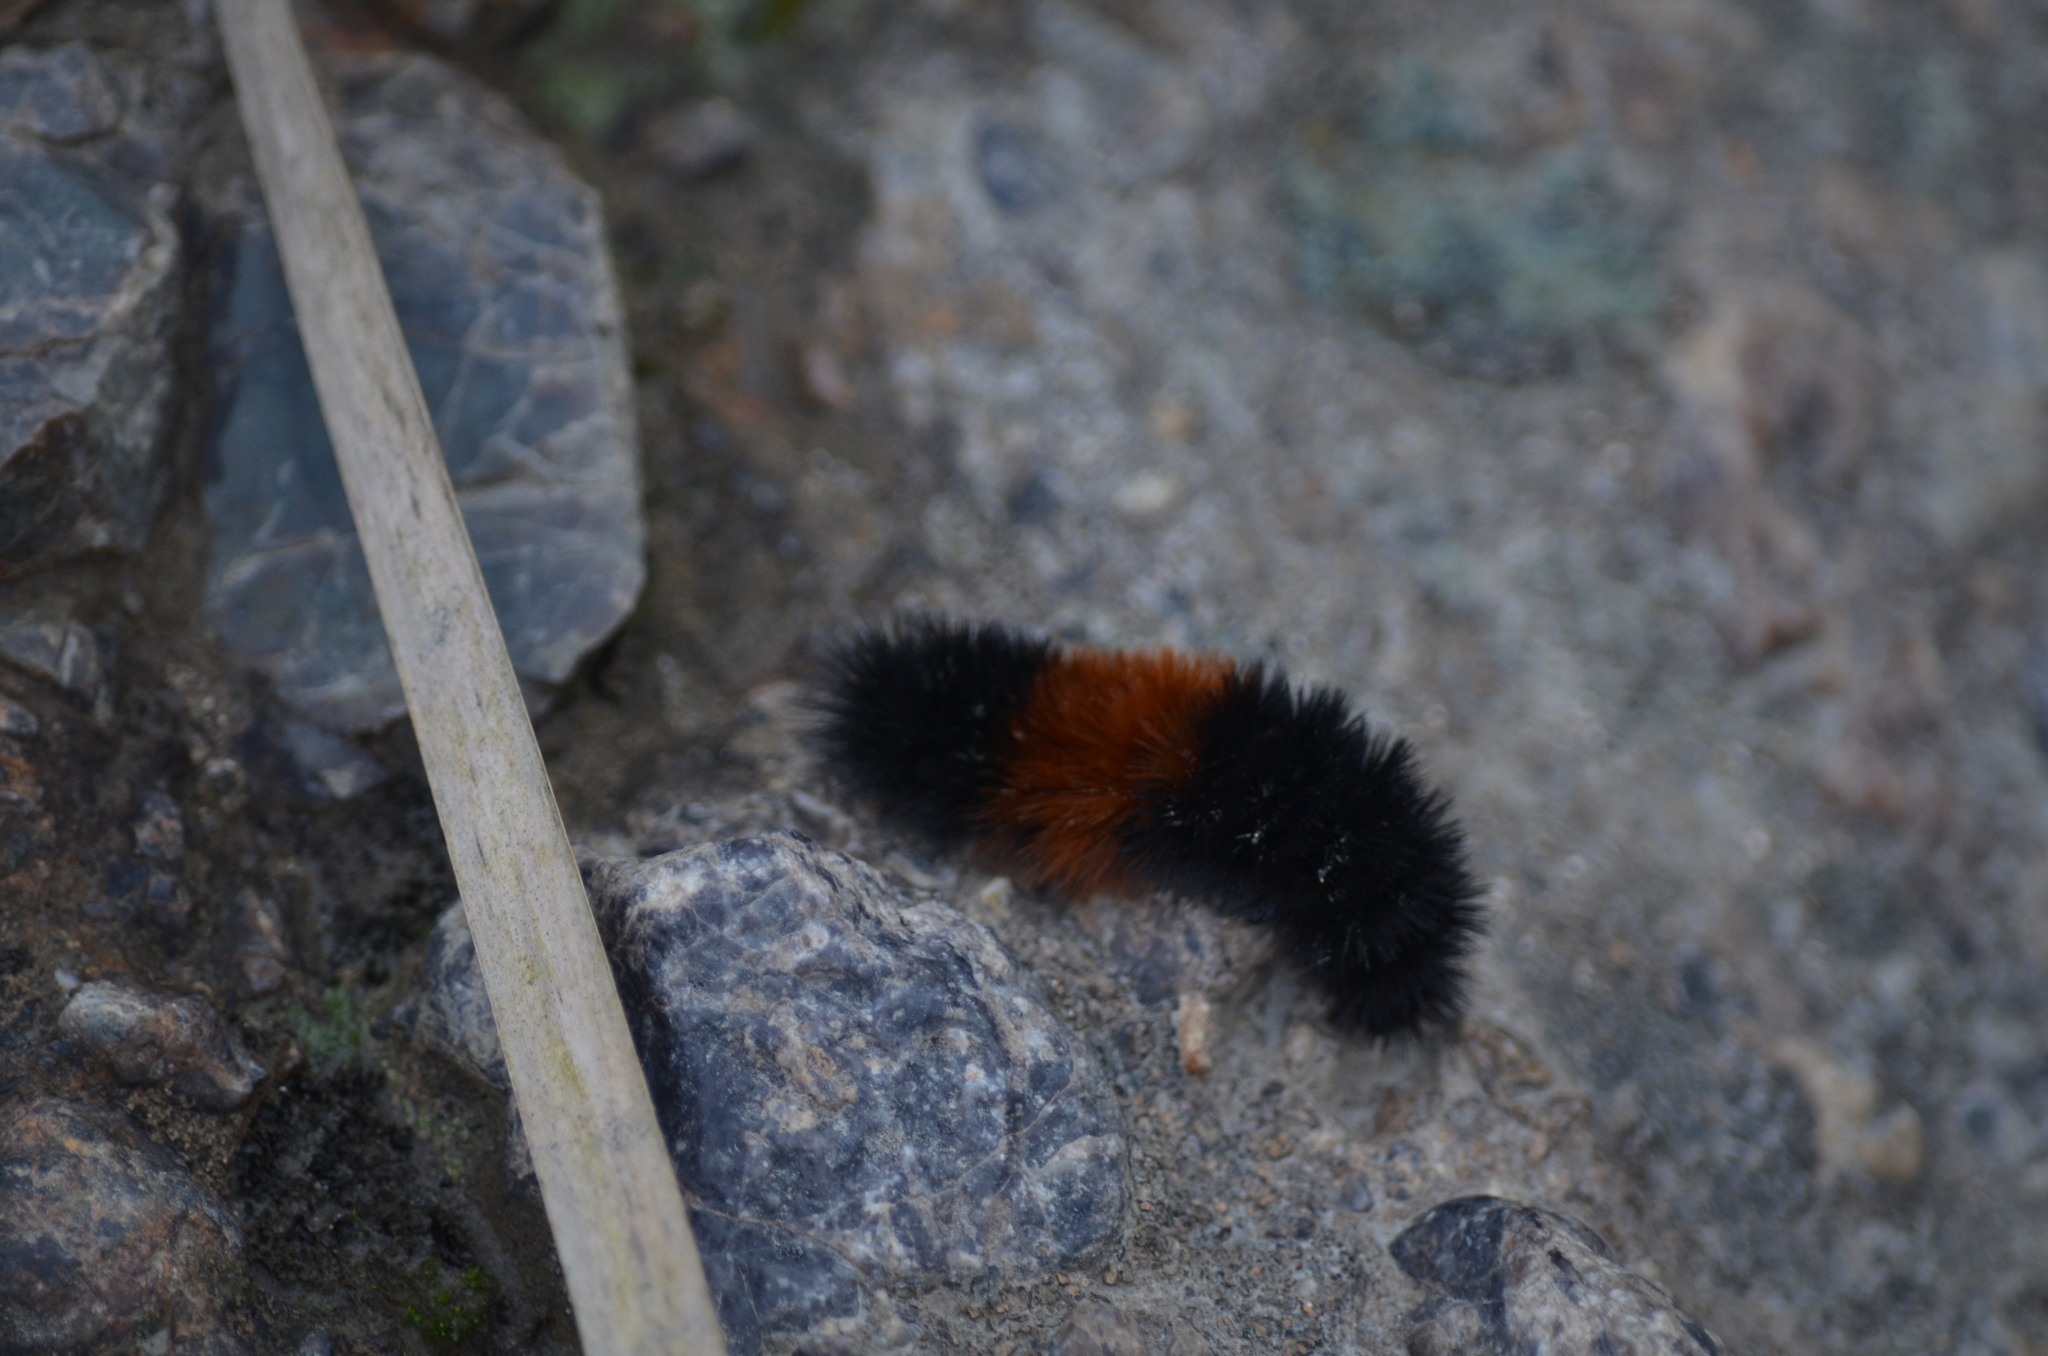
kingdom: Animalia
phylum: Arthropoda
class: Insecta
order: Lepidoptera
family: Erebidae
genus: Pyrrharctia
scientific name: Pyrrharctia isabella
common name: Isabella tiger moth
